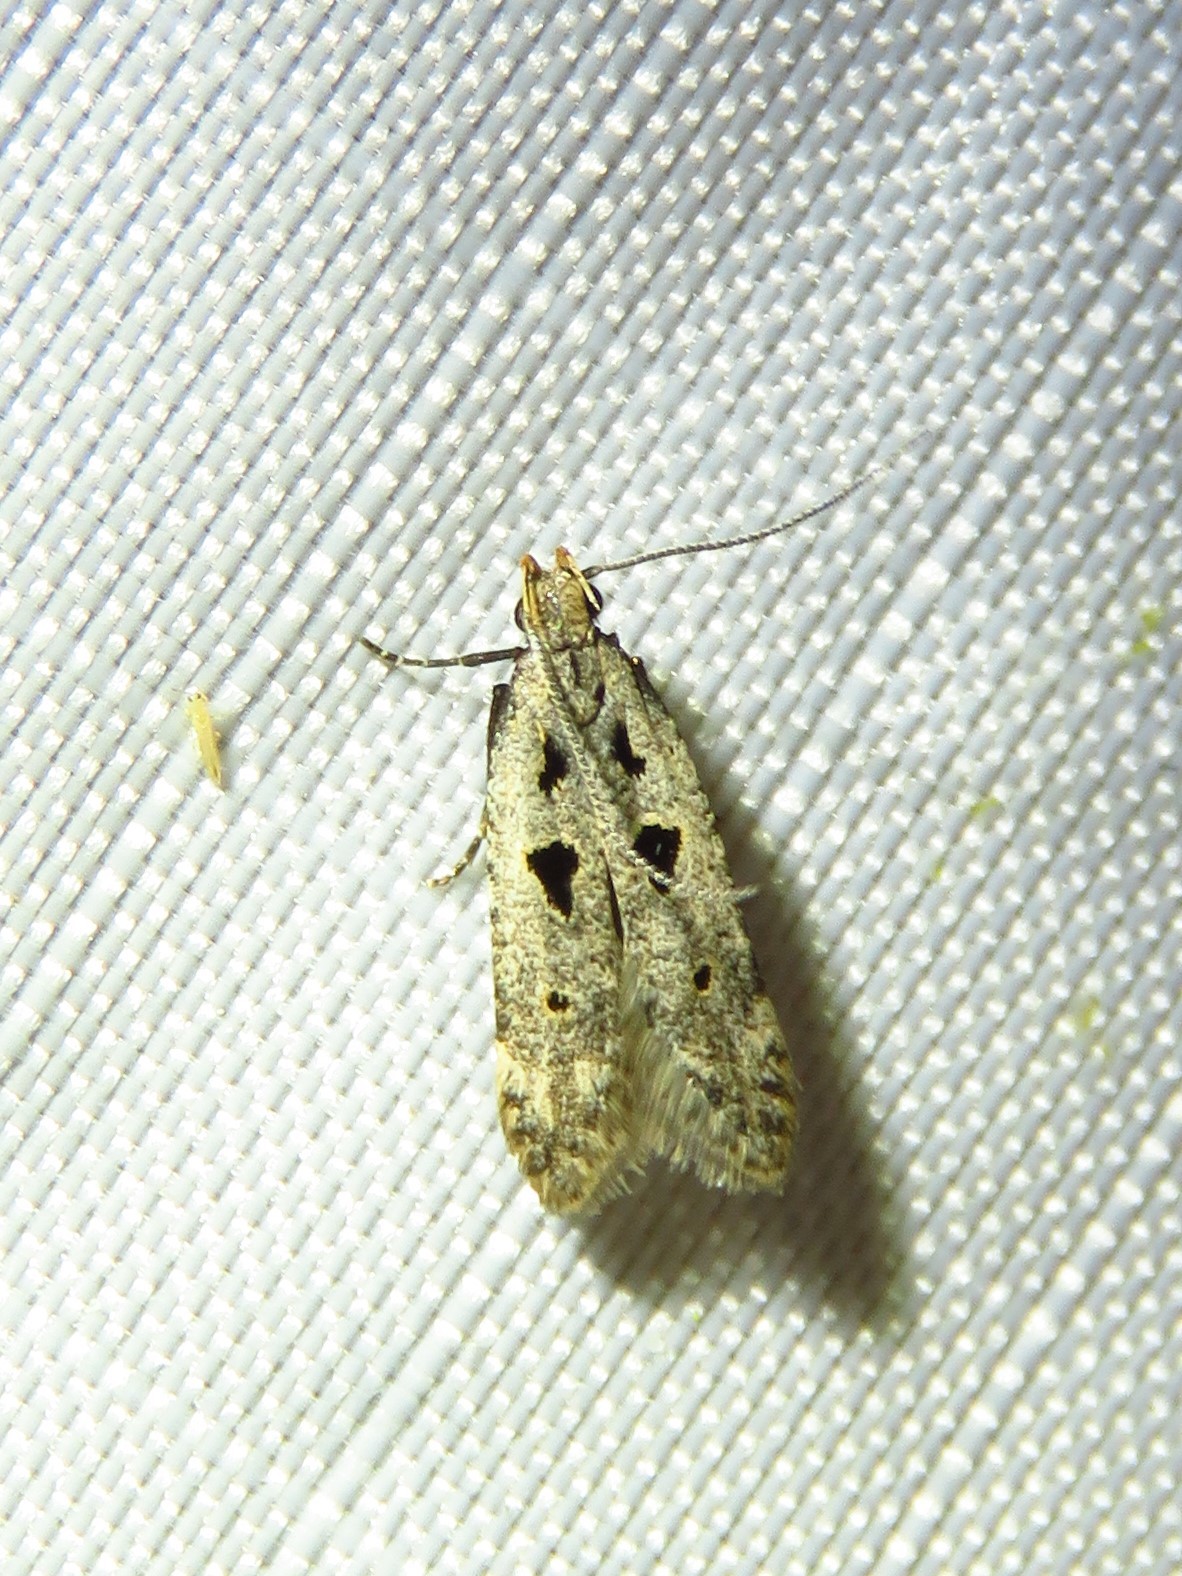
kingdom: Animalia
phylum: Arthropoda
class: Insecta
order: Lepidoptera
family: Gelechiidae
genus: Deltophora
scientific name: Deltophora sella
